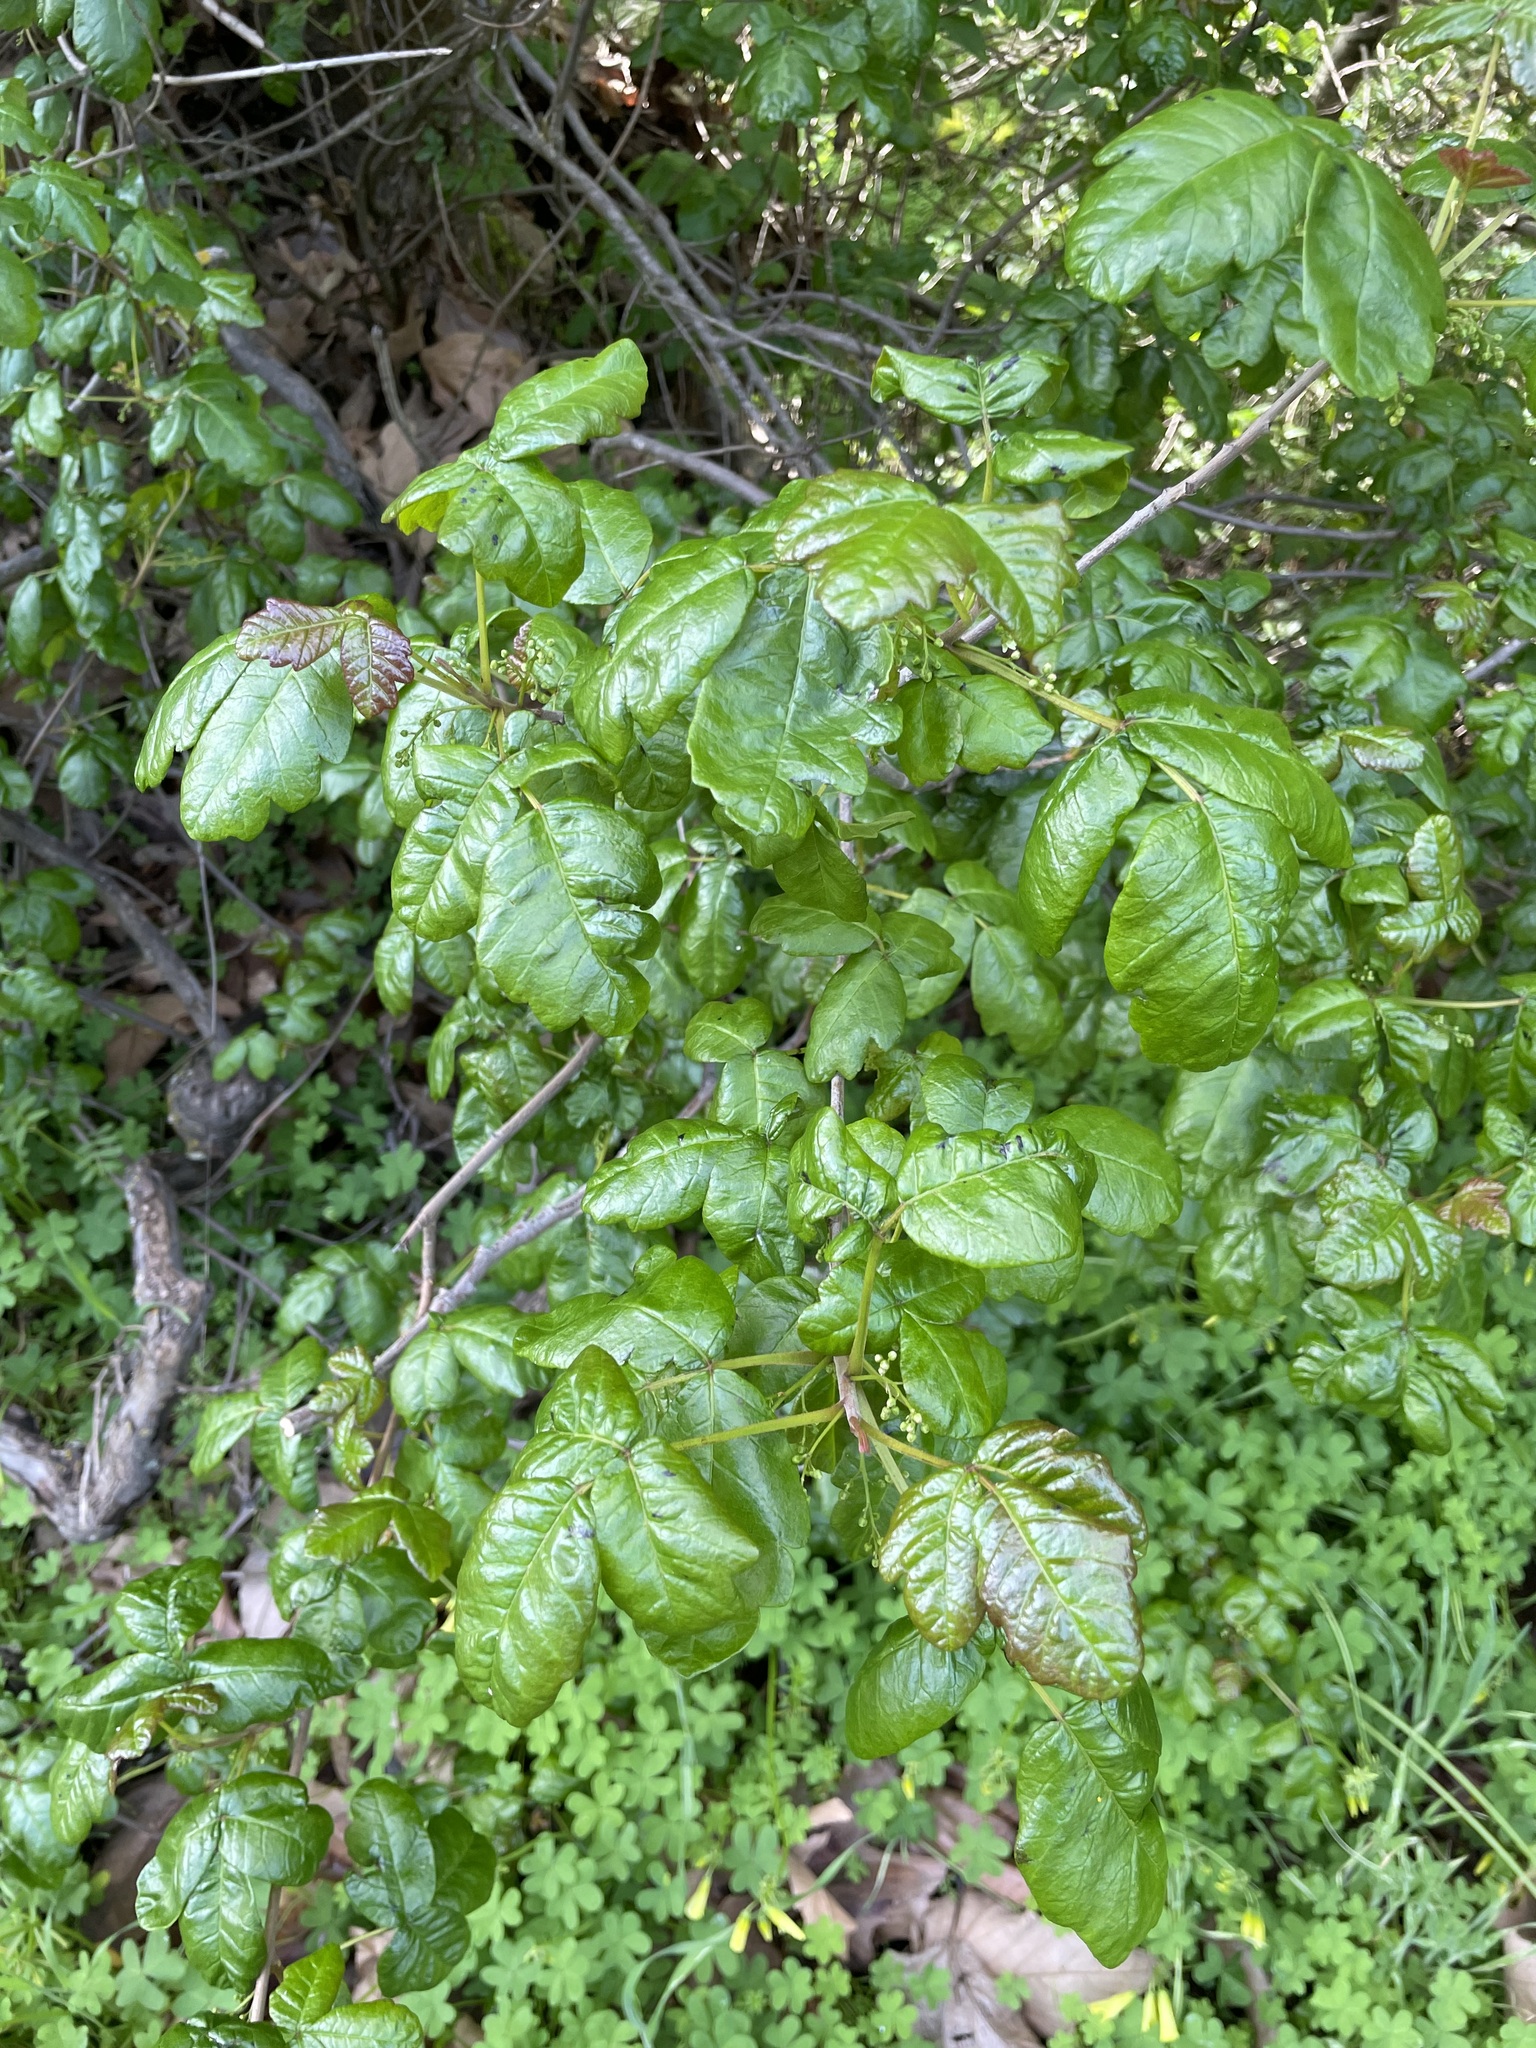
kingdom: Plantae
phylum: Tracheophyta
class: Magnoliopsida
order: Sapindales
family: Anacardiaceae
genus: Toxicodendron
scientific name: Toxicodendron diversilobum
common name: Pacific poison-oak
